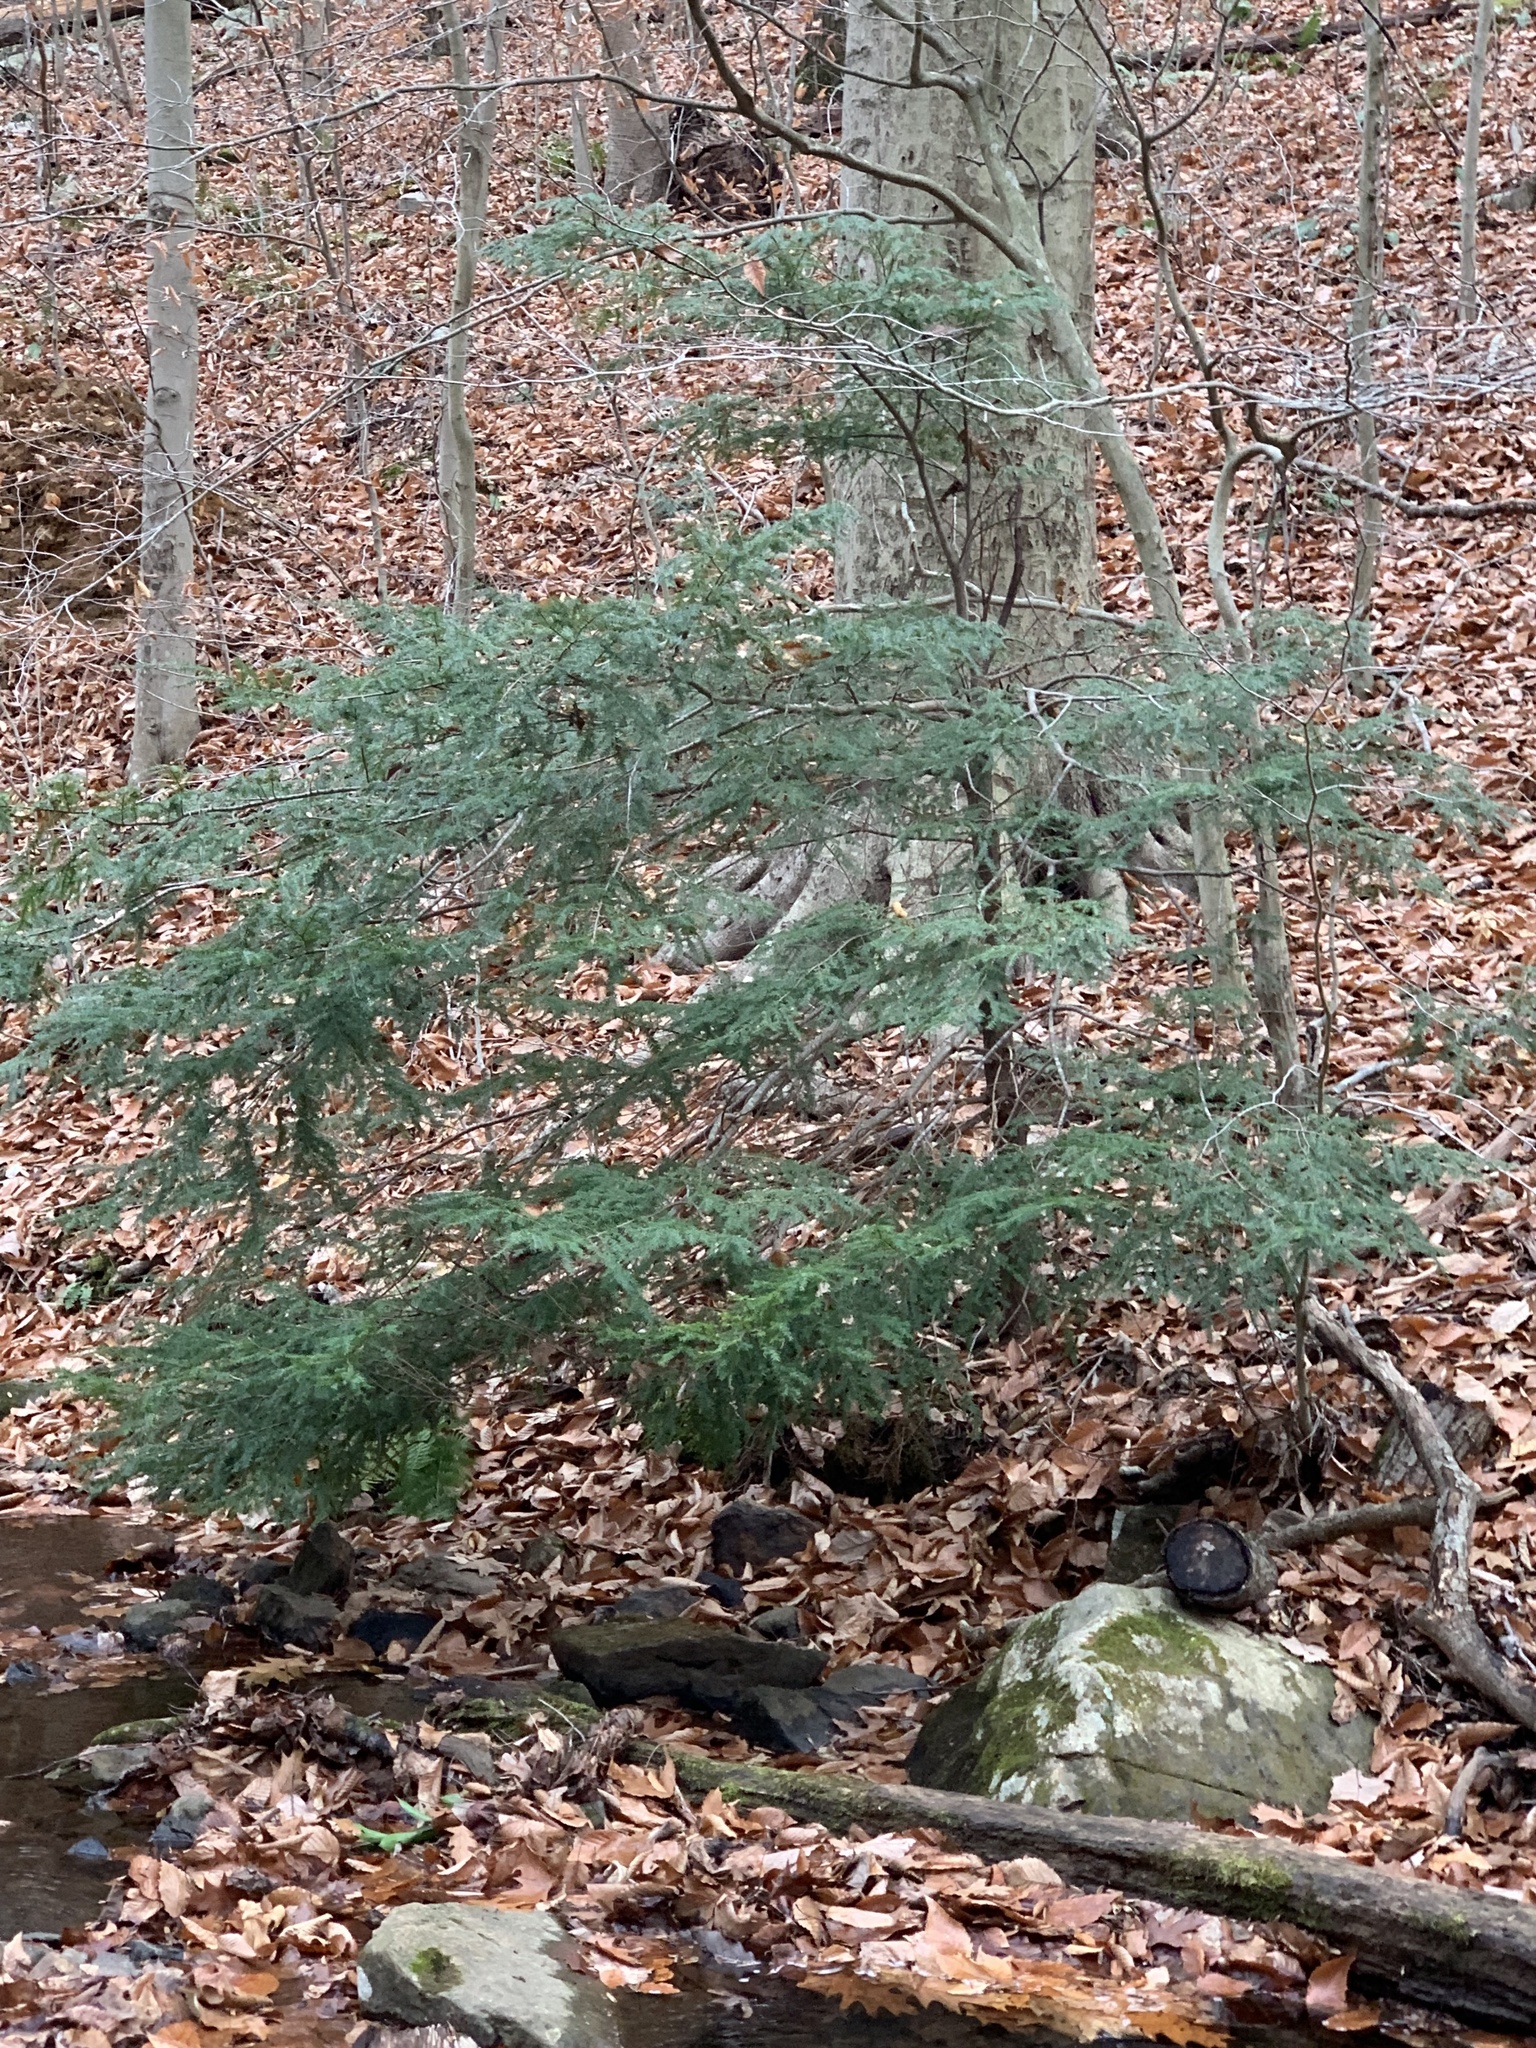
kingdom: Plantae
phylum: Tracheophyta
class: Pinopsida
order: Pinales
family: Pinaceae
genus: Tsuga
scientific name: Tsuga canadensis
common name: Eastern hemlock
